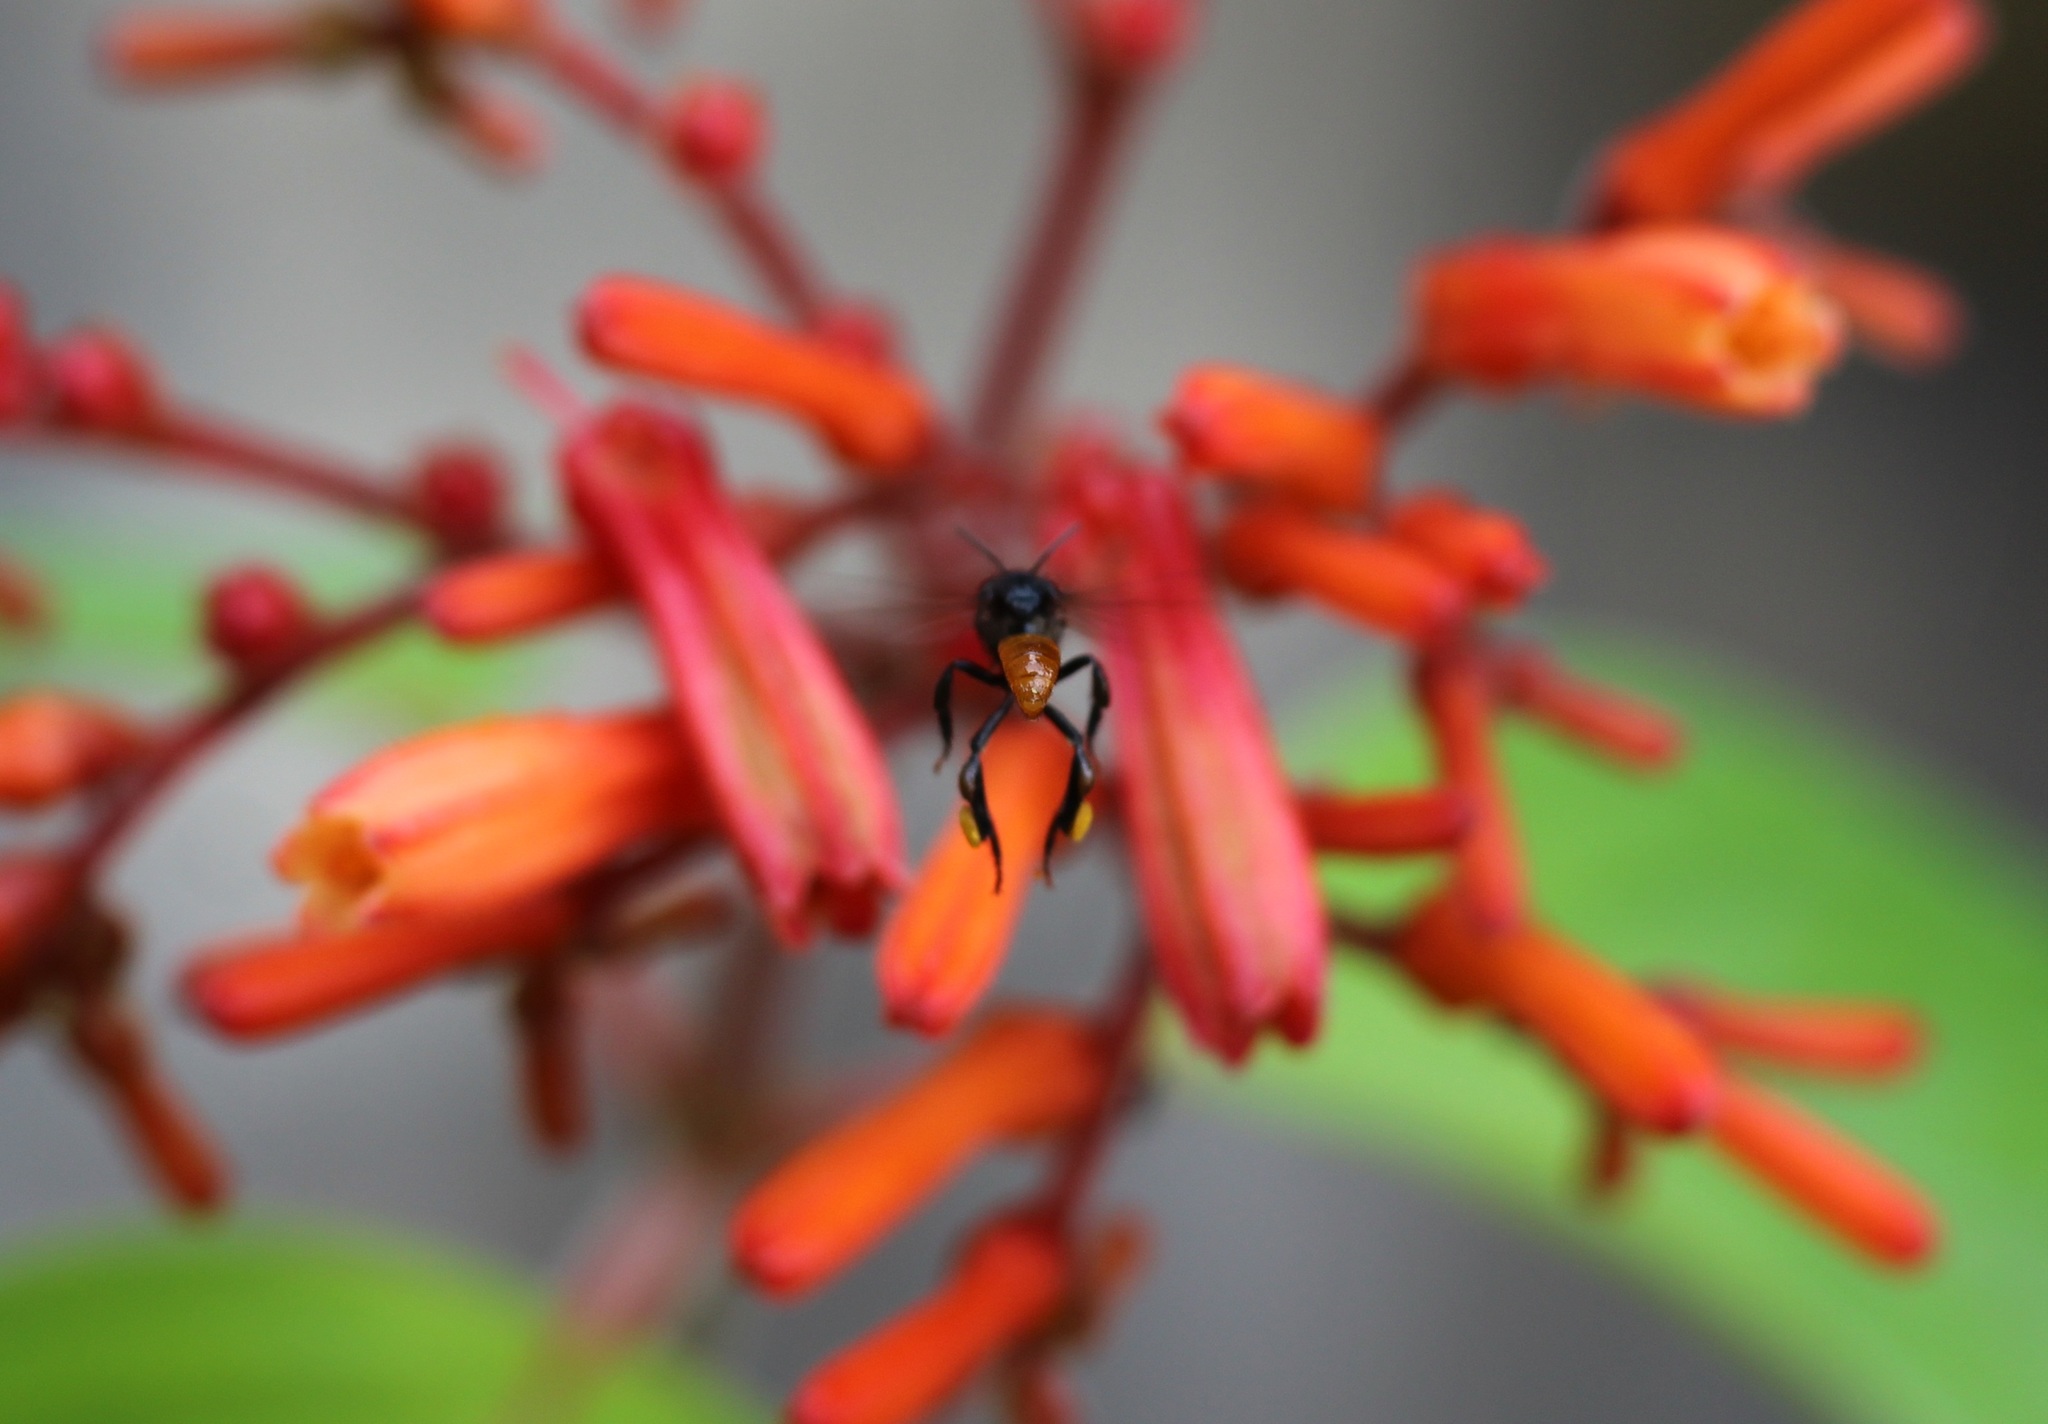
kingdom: Plantae
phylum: Tracheophyta
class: Magnoliopsida
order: Gentianales
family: Rubiaceae
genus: Hamelia
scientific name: Hamelia patens
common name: Redhead
